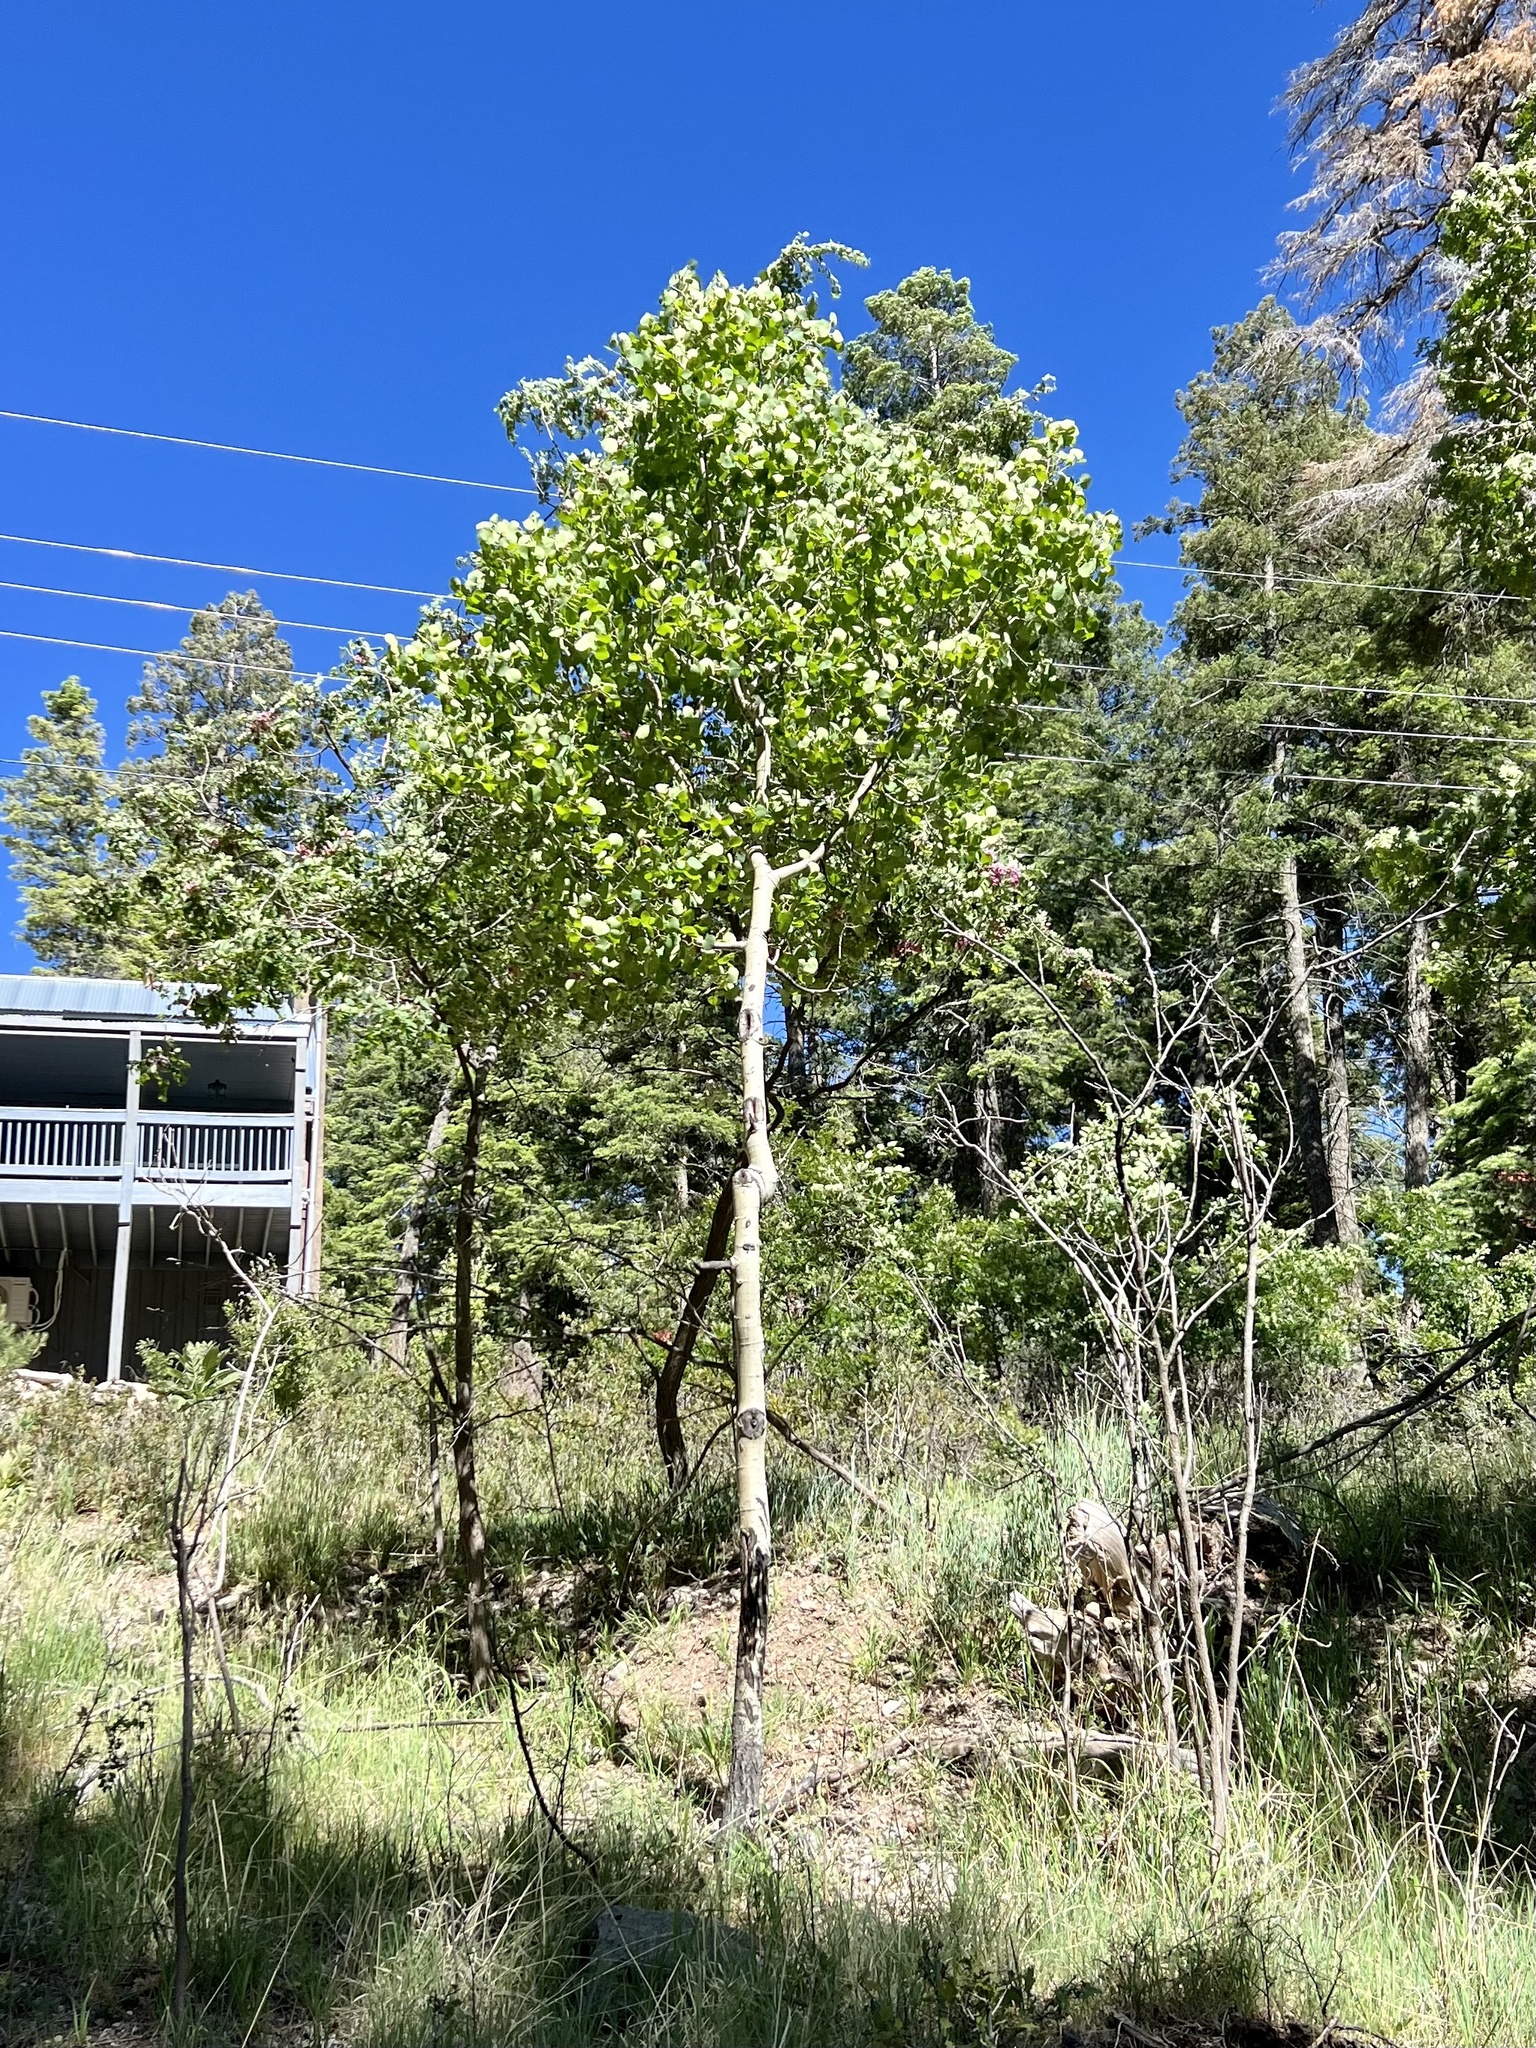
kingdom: Plantae
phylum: Tracheophyta
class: Magnoliopsida
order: Malpighiales
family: Salicaceae
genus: Populus
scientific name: Populus tremuloides
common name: Quaking aspen
